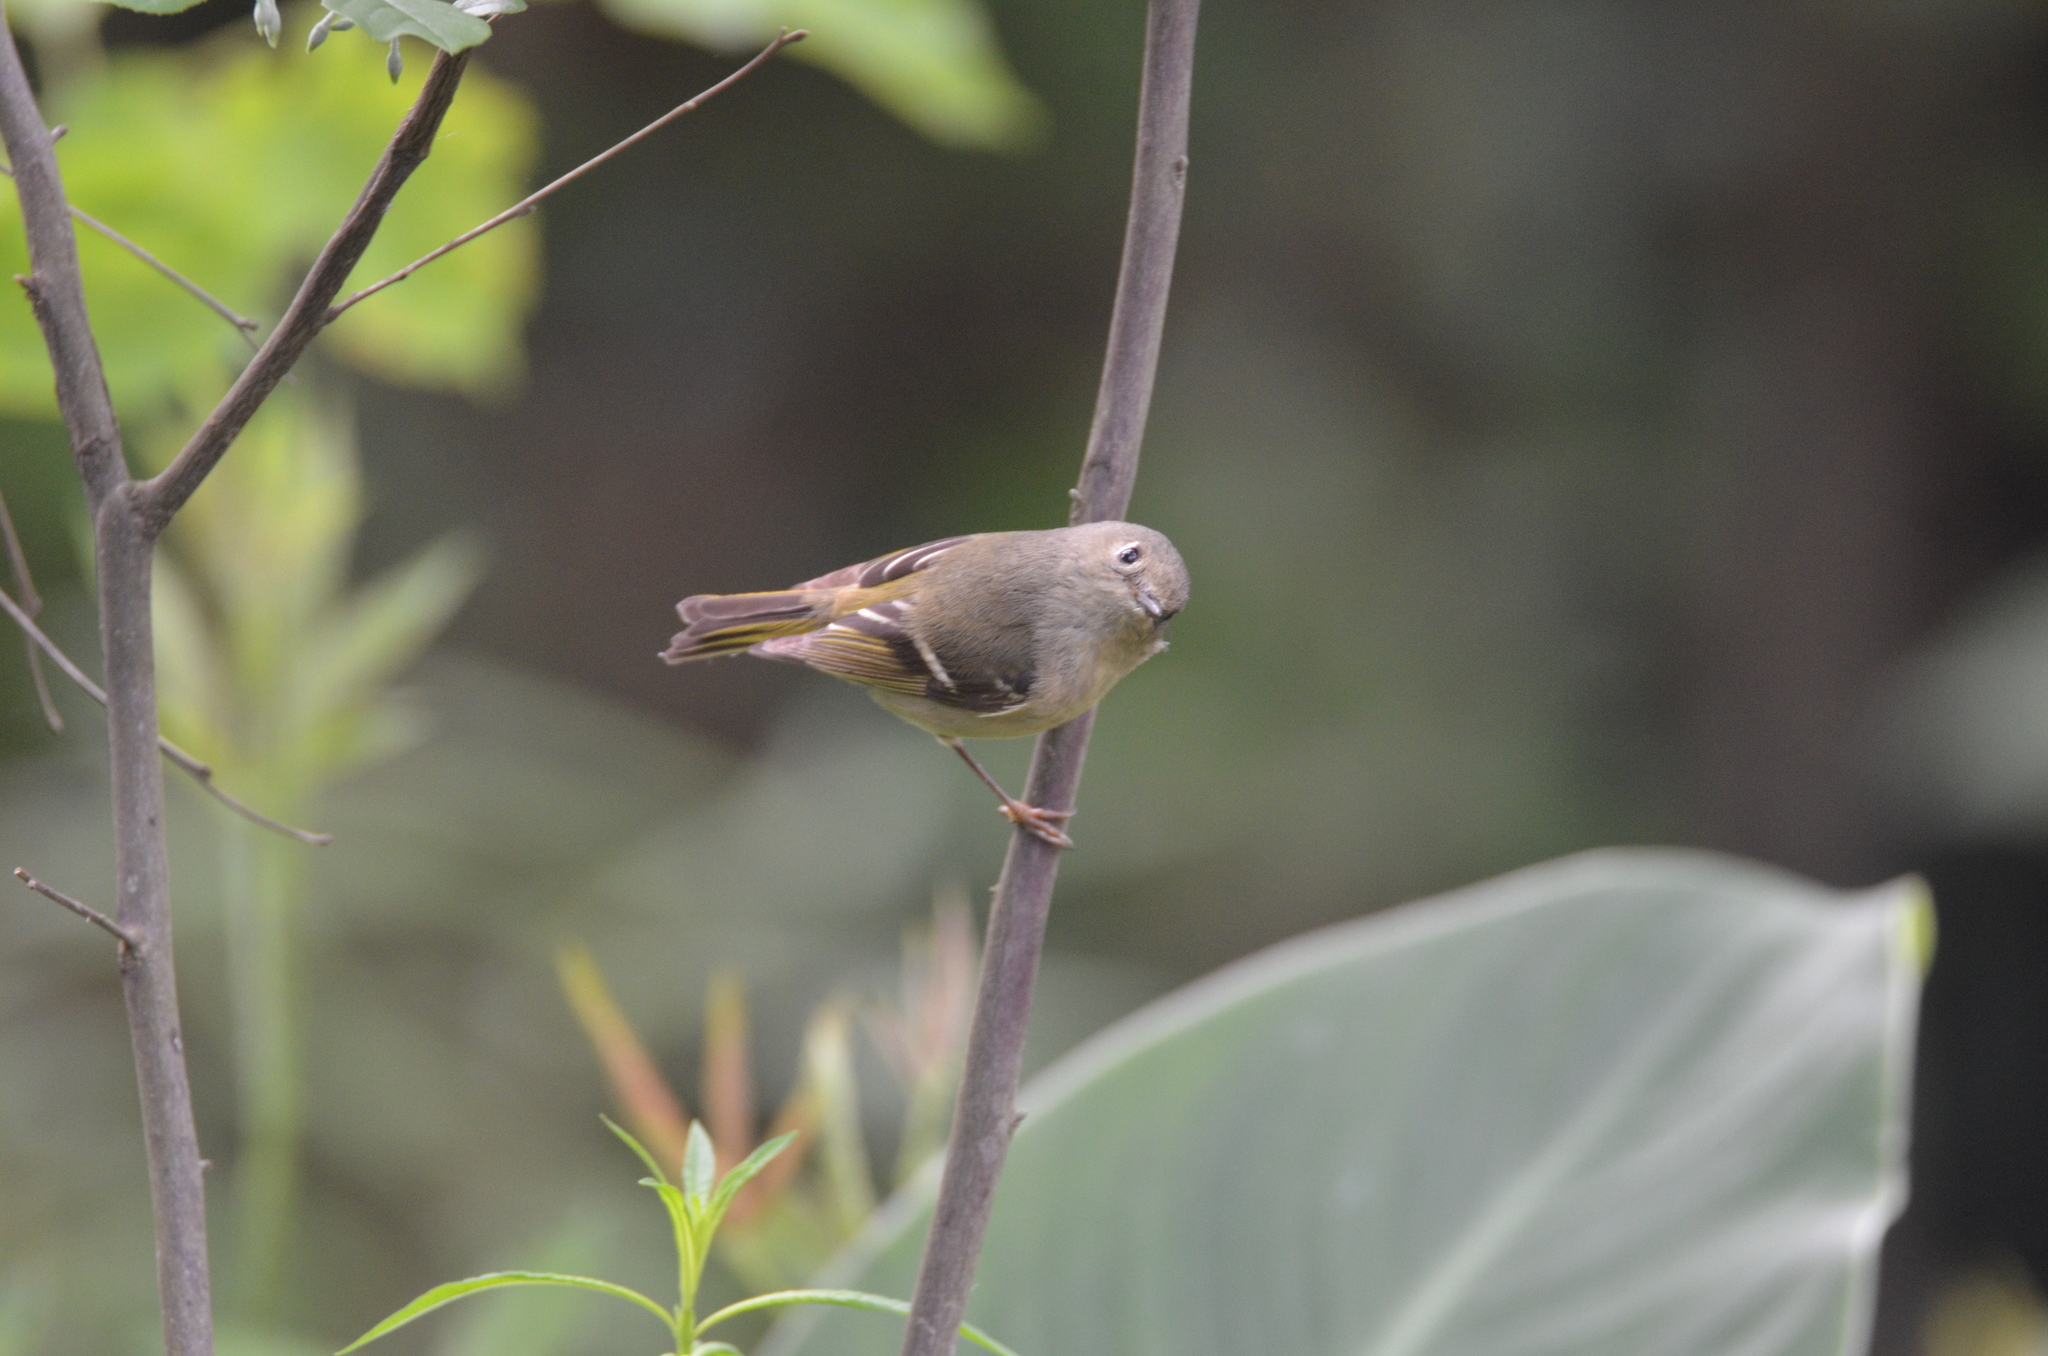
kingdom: Animalia
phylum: Chordata
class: Aves
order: Passeriformes
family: Regulidae
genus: Regulus
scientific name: Regulus calendula
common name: Ruby-crowned kinglet
